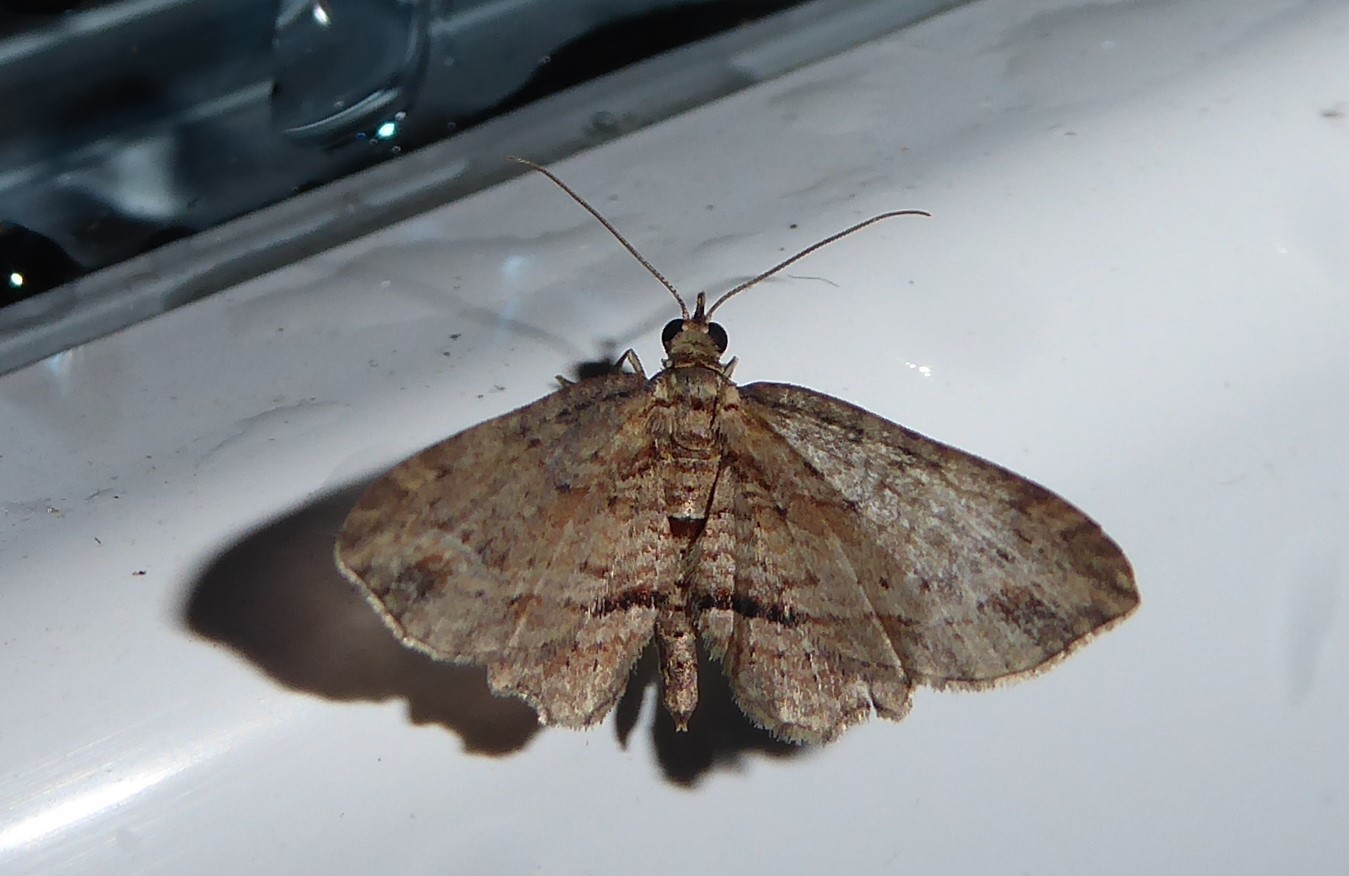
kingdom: Animalia
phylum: Arthropoda
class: Insecta
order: Lepidoptera
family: Geometridae
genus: Chloroclystis
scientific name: Chloroclystis filata
